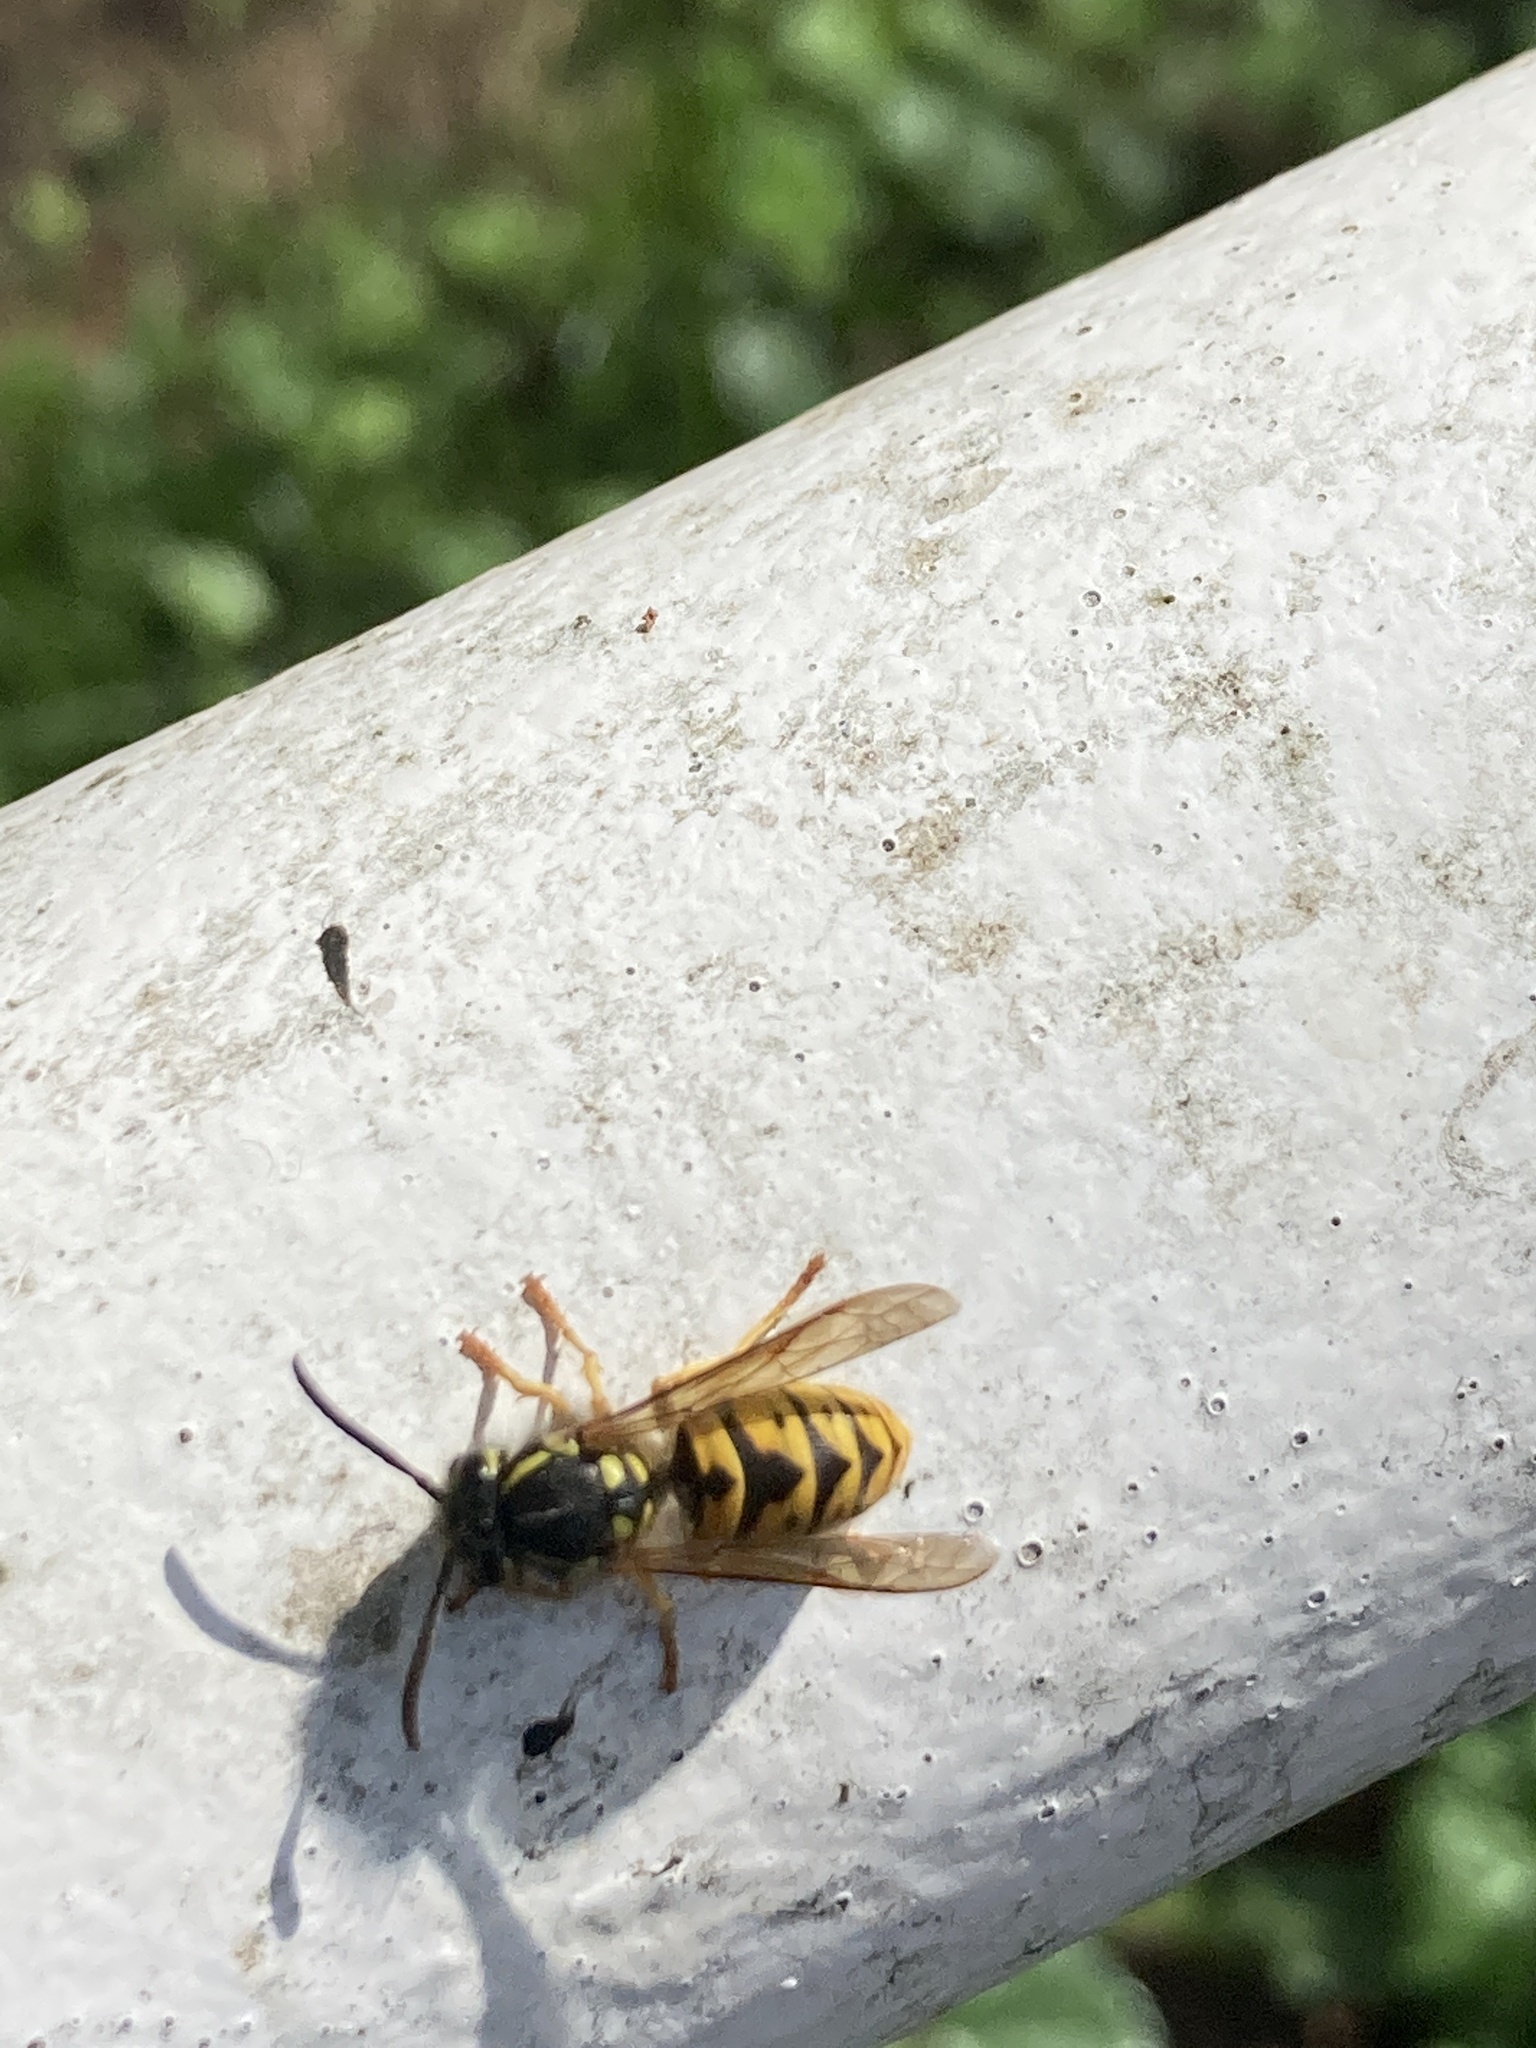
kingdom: Animalia
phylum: Arthropoda
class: Insecta
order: Hymenoptera
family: Vespidae
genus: Vespula
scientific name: Vespula germanica
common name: German wasp
